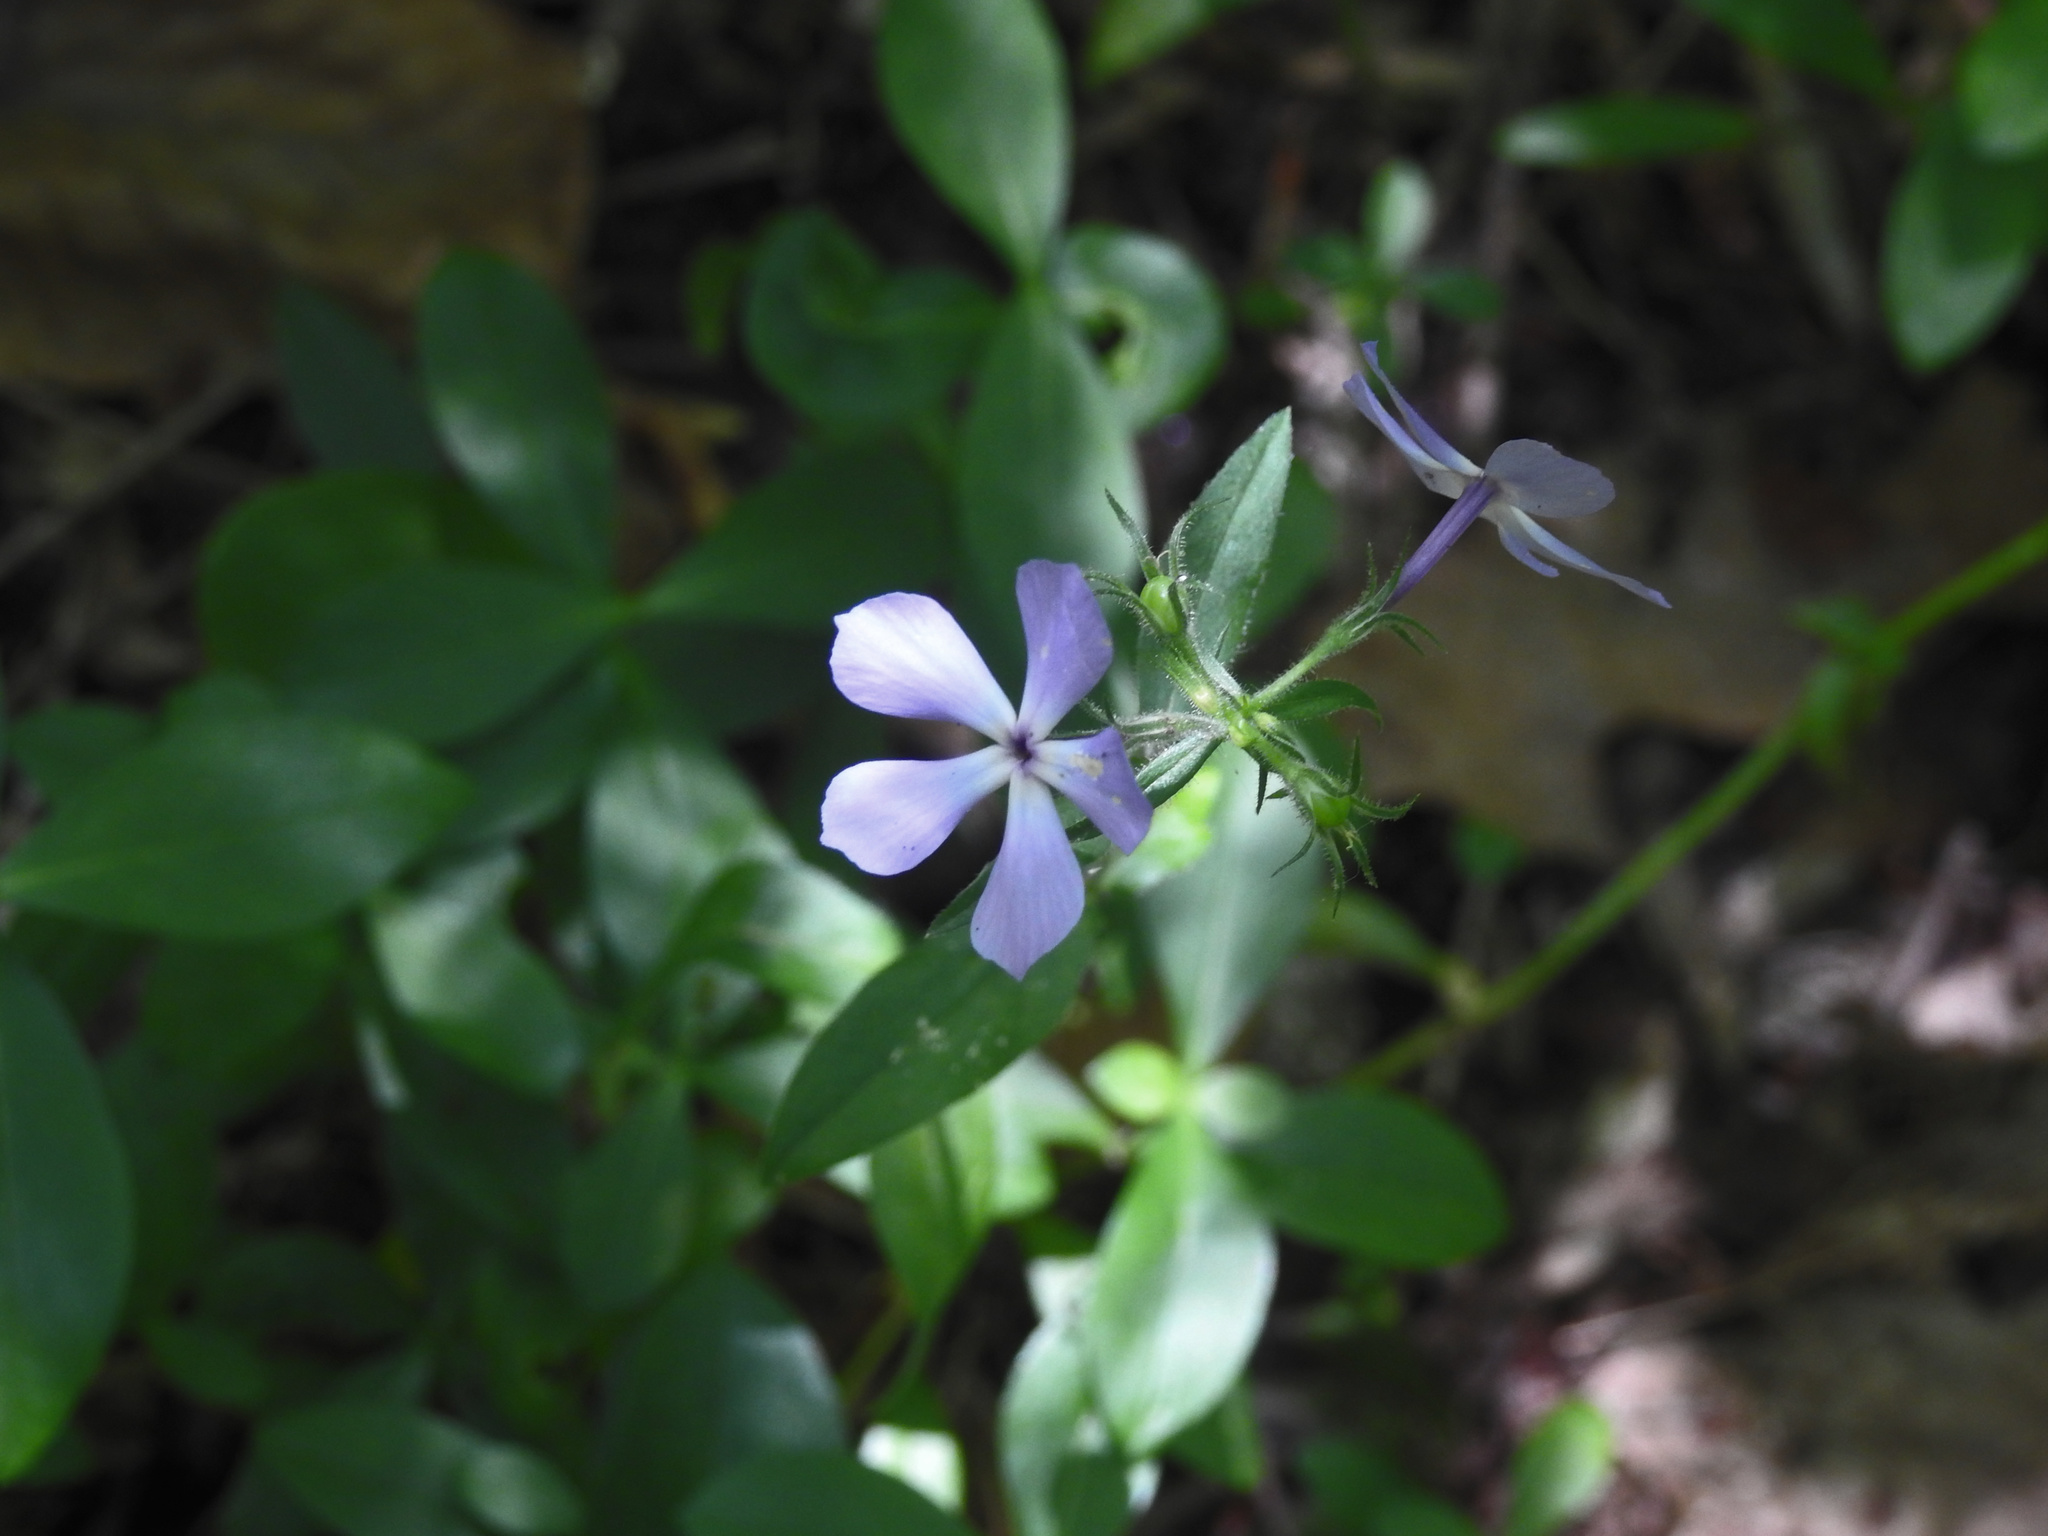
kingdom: Plantae
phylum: Tracheophyta
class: Magnoliopsida
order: Ericales
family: Polemoniaceae
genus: Phlox
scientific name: Phlox divaricata
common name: Blue phlox
